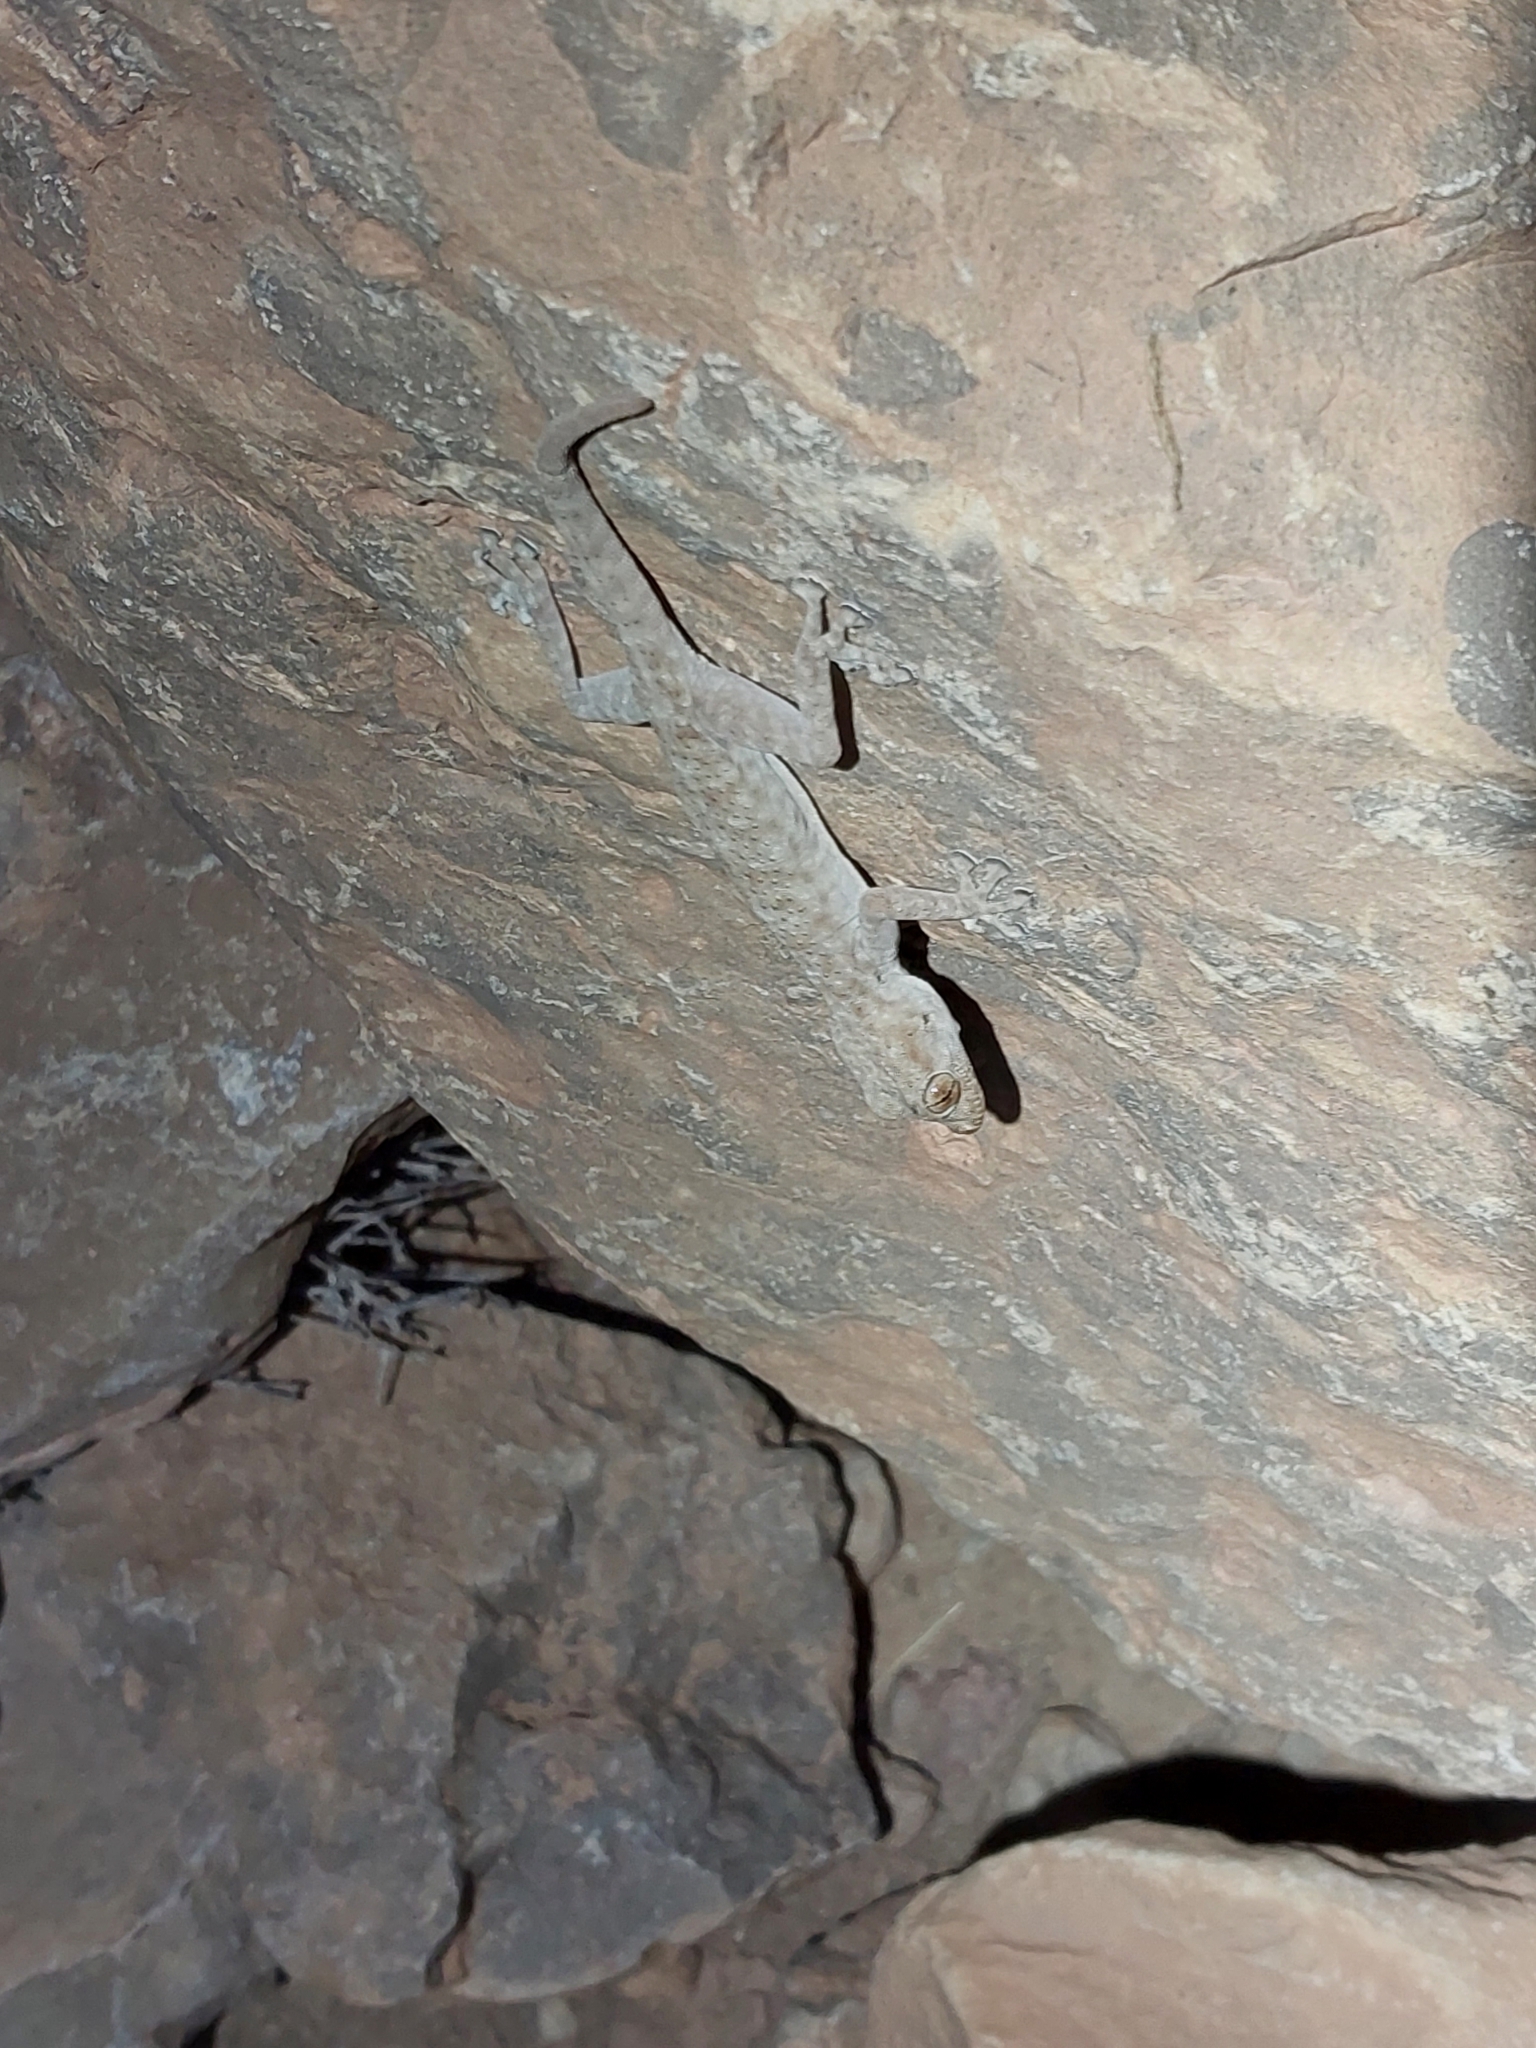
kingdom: Animalia
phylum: Chordata
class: Squamata
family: Phyllodactylidae
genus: Ptyodactylus
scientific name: Ptyodactylus oudrii
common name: Algerian fan-fingered gecko
